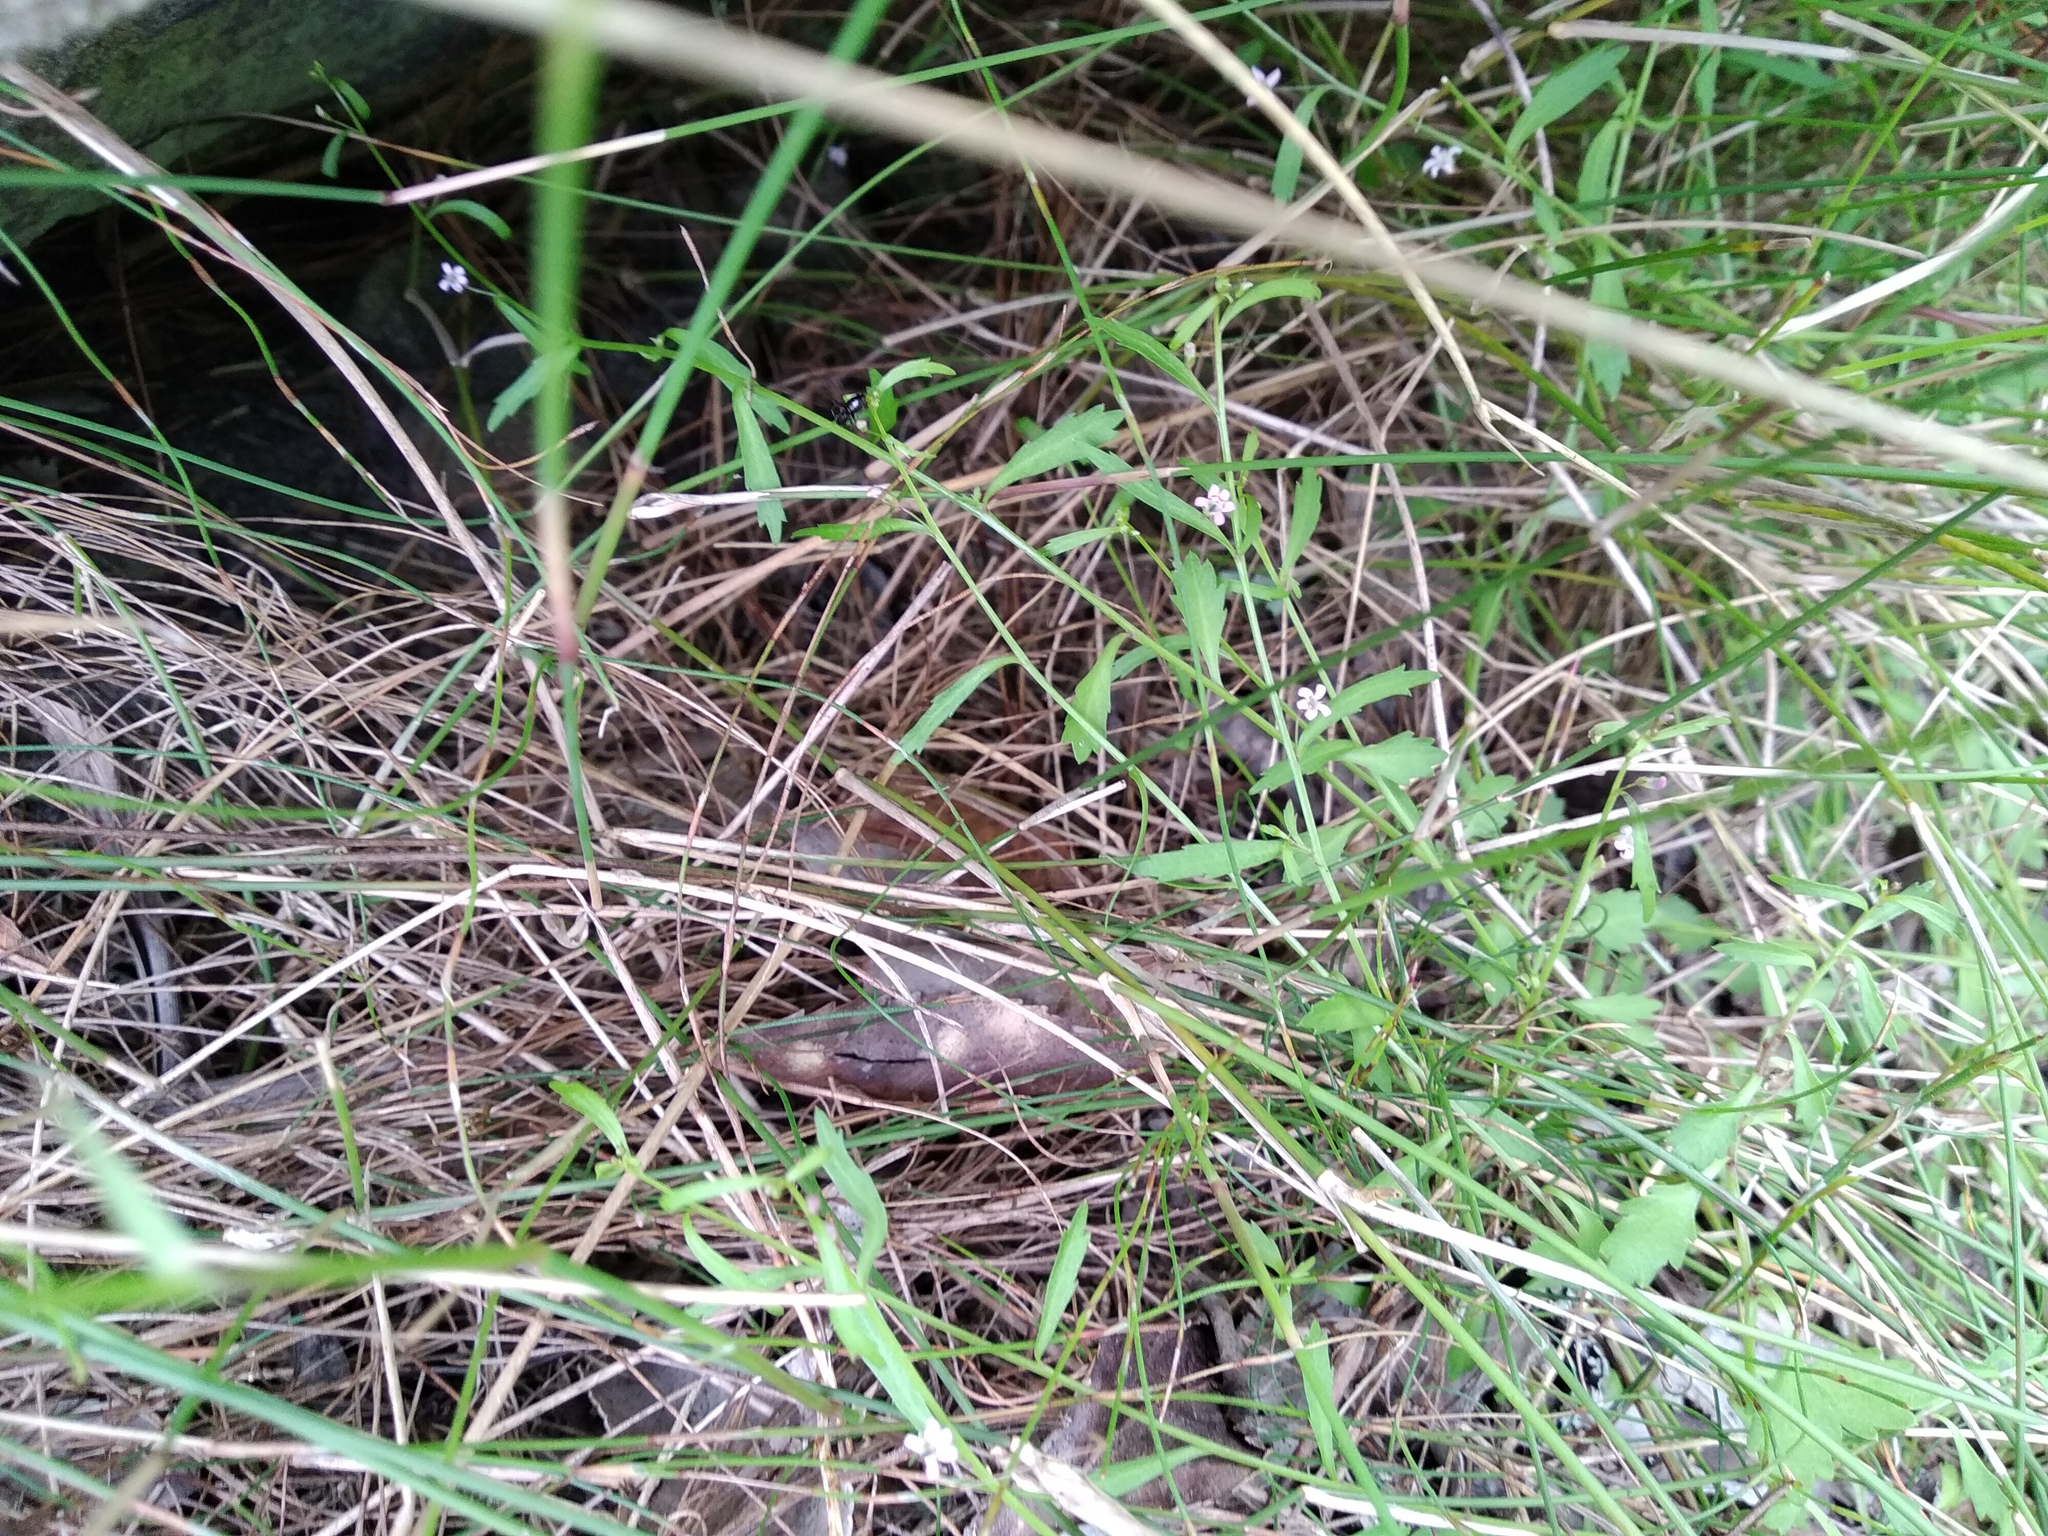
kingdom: Plantae
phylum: Tracheophyta
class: Magnoliopsida
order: Asterales
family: Campanulaceae
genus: Lobelia
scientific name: Lobelia eckloniana
